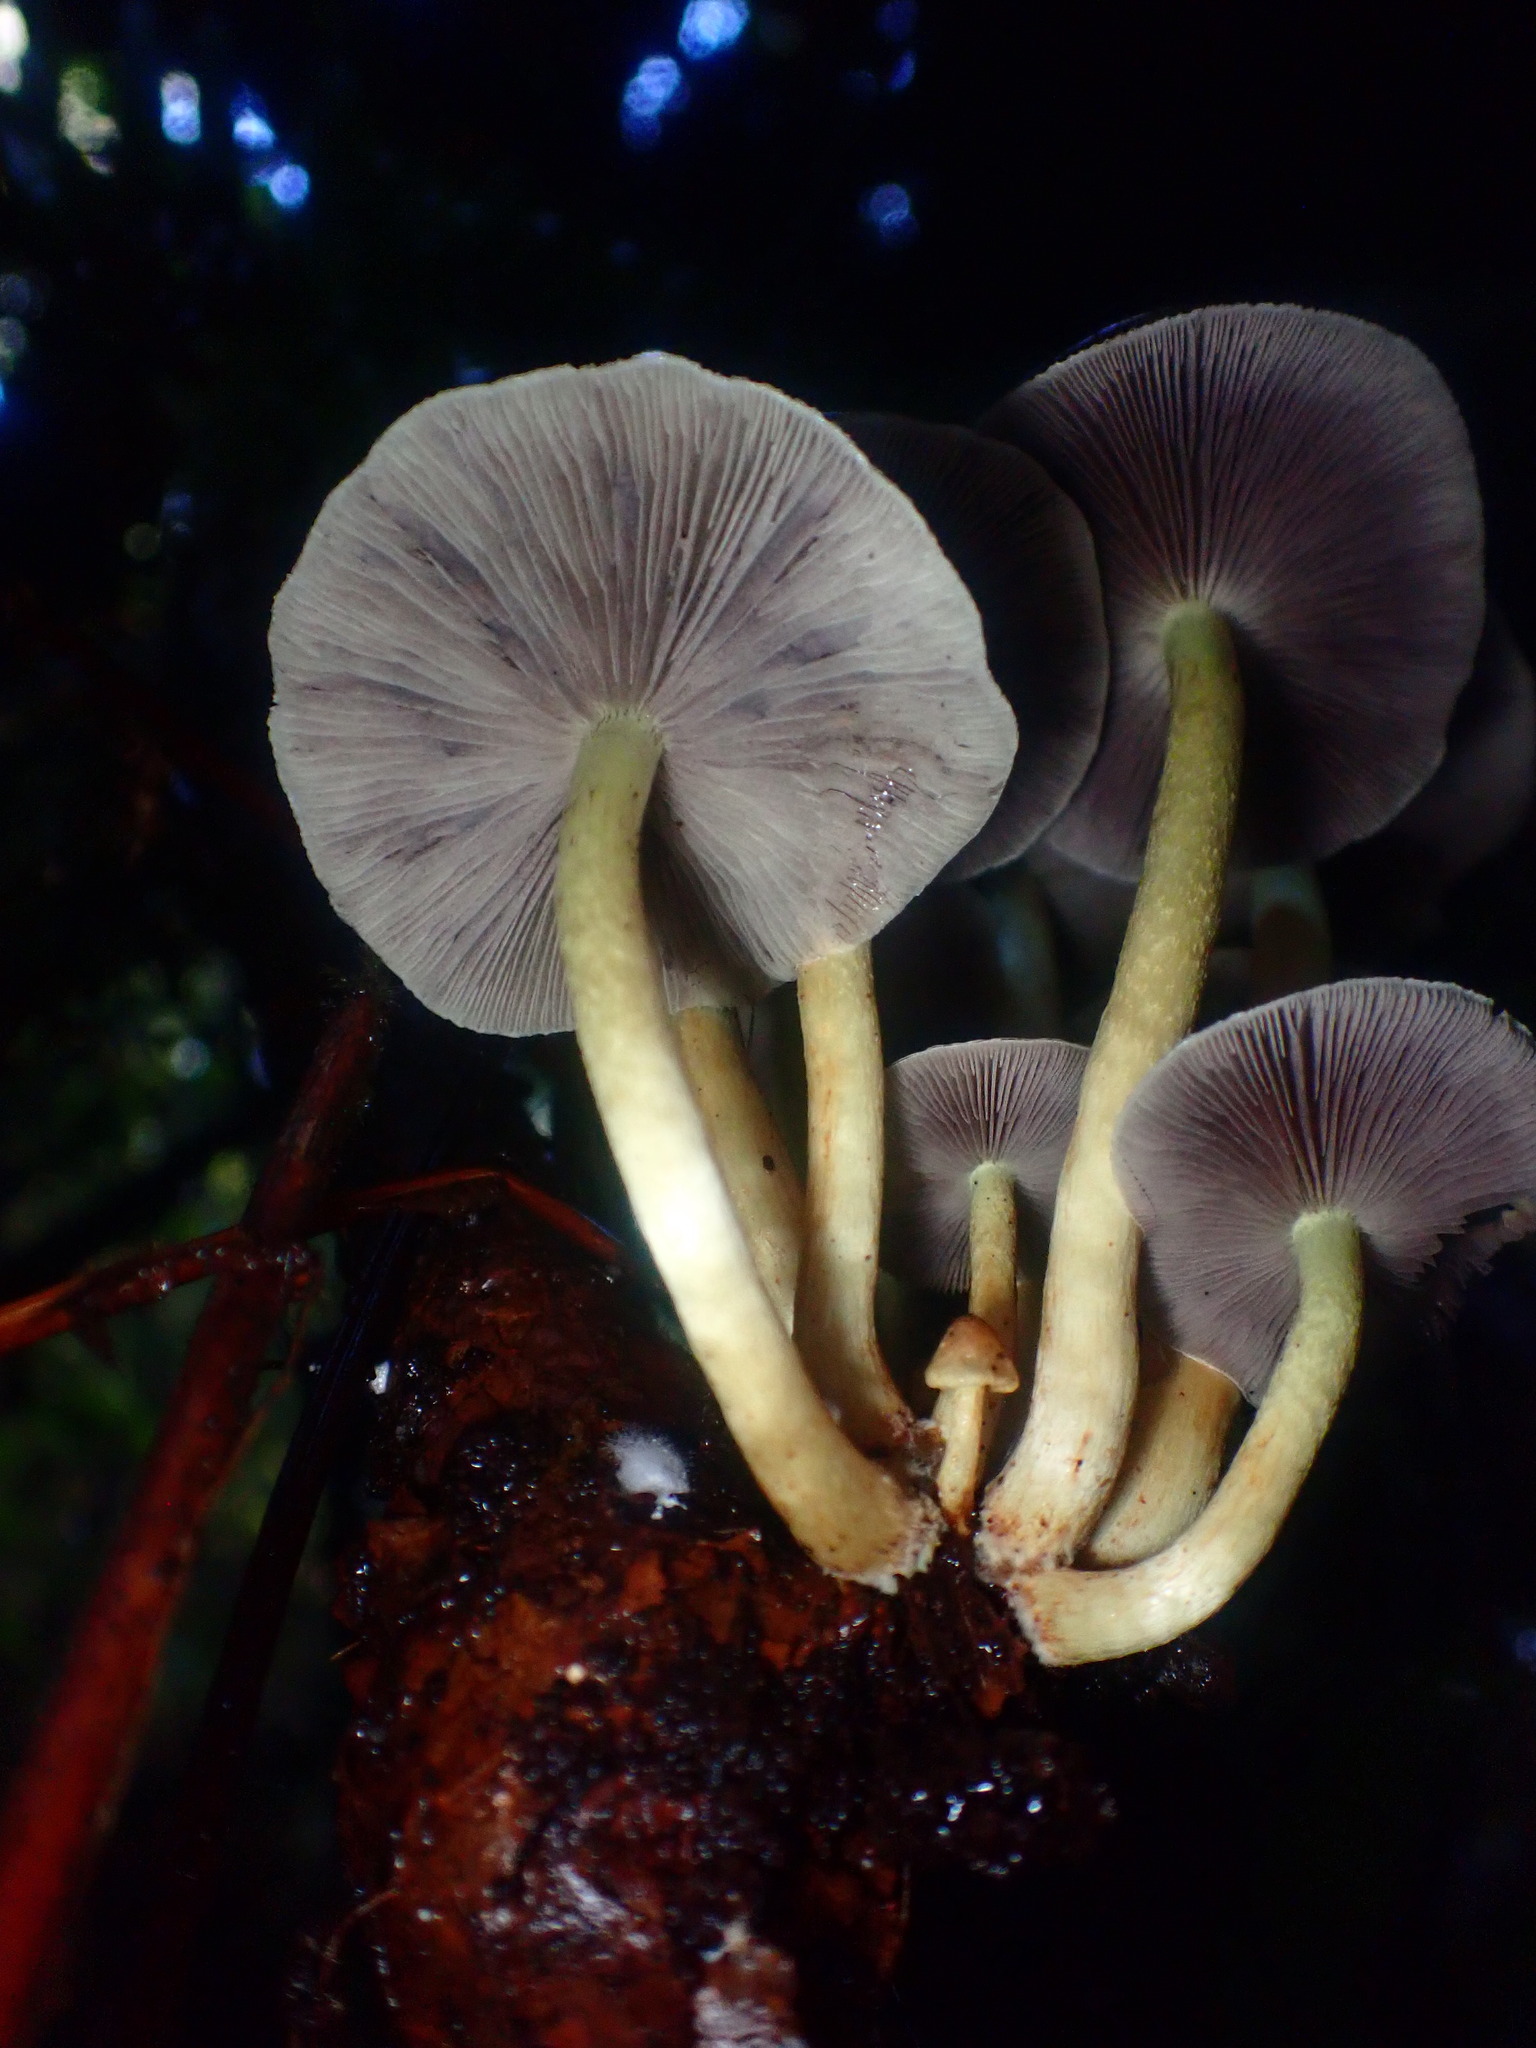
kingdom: Fungi
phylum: Basidiomycota
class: Agaricomycetes
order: Agaricales
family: Strophariaceae
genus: Hypholoma
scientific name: Hypholoma capnoides
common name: Conifer tuft
